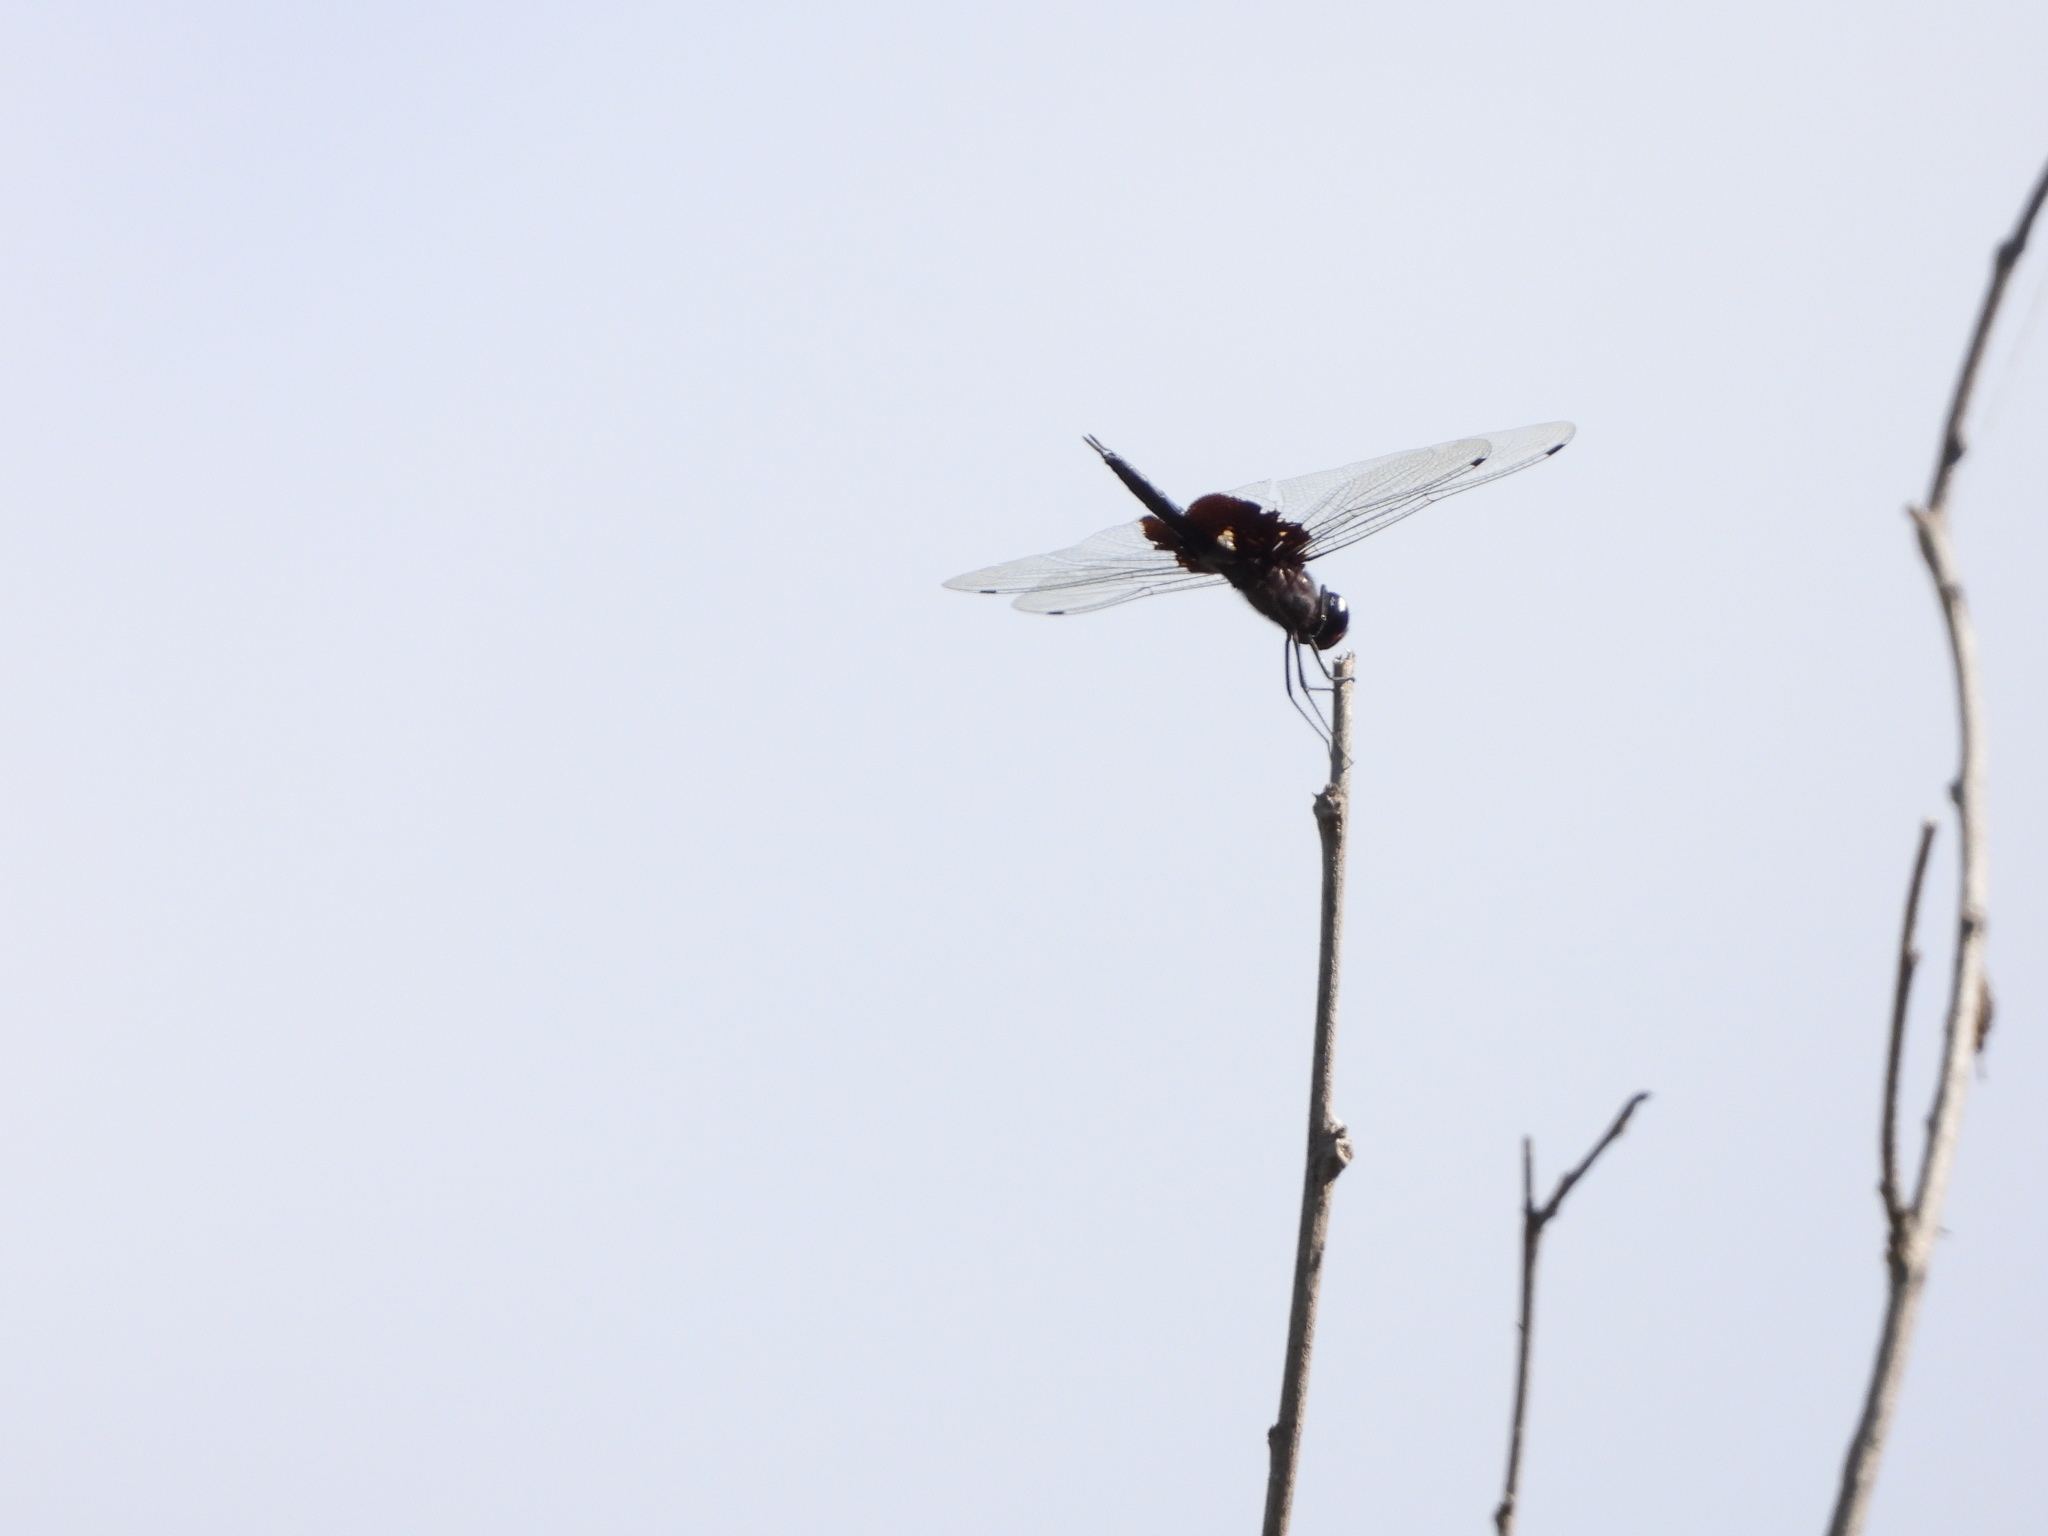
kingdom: Animalia
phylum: Arthropoda
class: Insecta
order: Odonata
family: Libellulidae
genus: Tramea
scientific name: Tramea lacerata
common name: Black saddlebags
